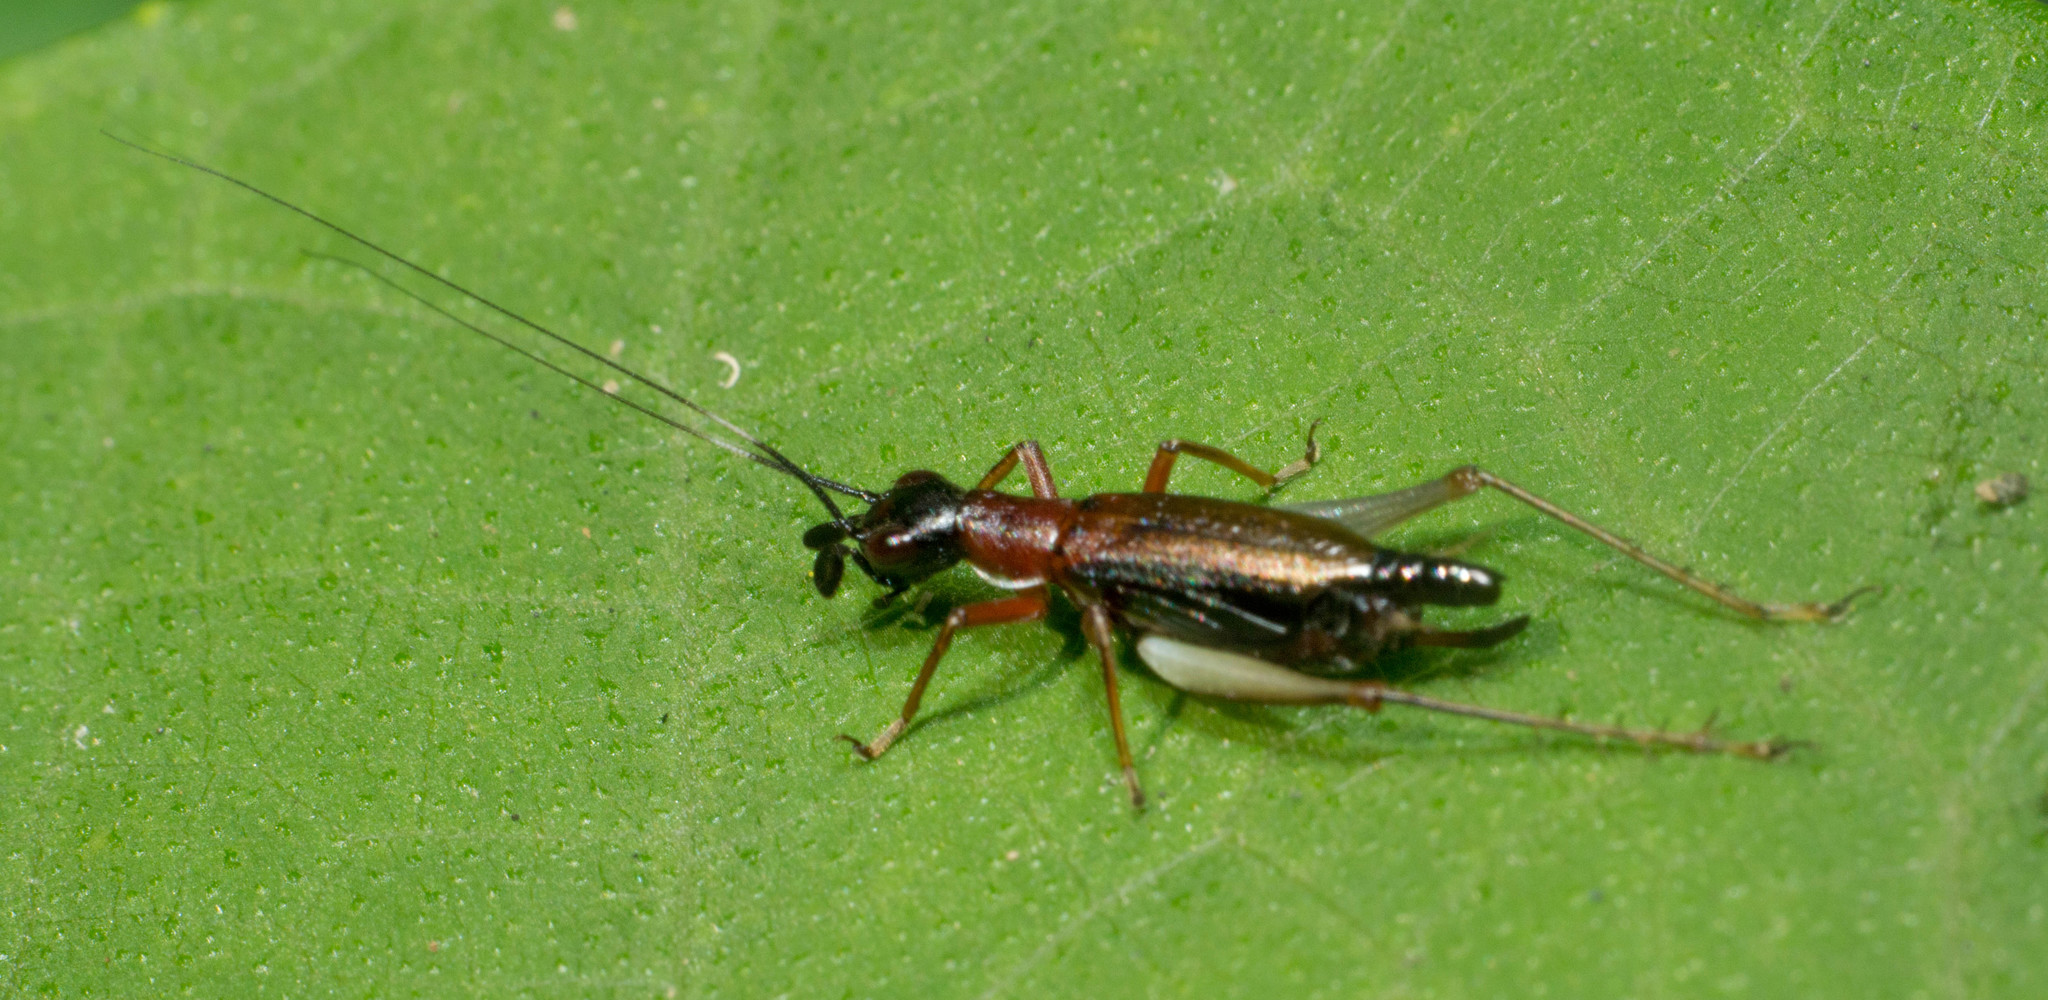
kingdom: Animalia
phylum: Arthropoda
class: Insecta
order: Orthoptera
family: Trigonidiidae
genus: Cranistus
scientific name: Cranistus colliurides
